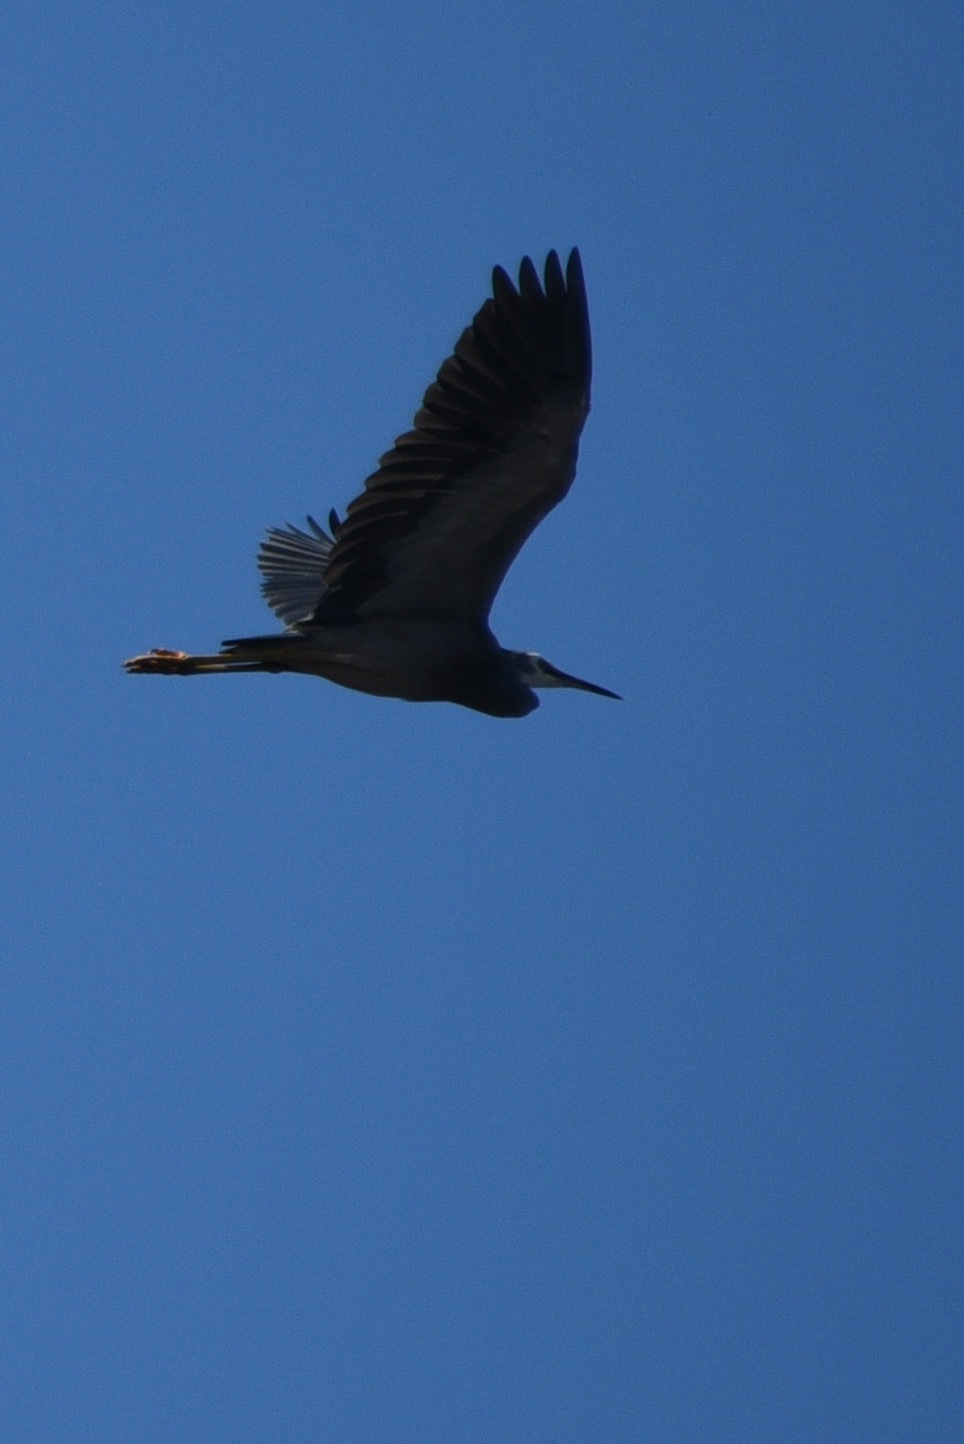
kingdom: Animalia
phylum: Chordata
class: Aves
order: Pelecaniformes
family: Ardeidae
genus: Egretta
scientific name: Egretta novaehollandiae
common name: White-faced heron
